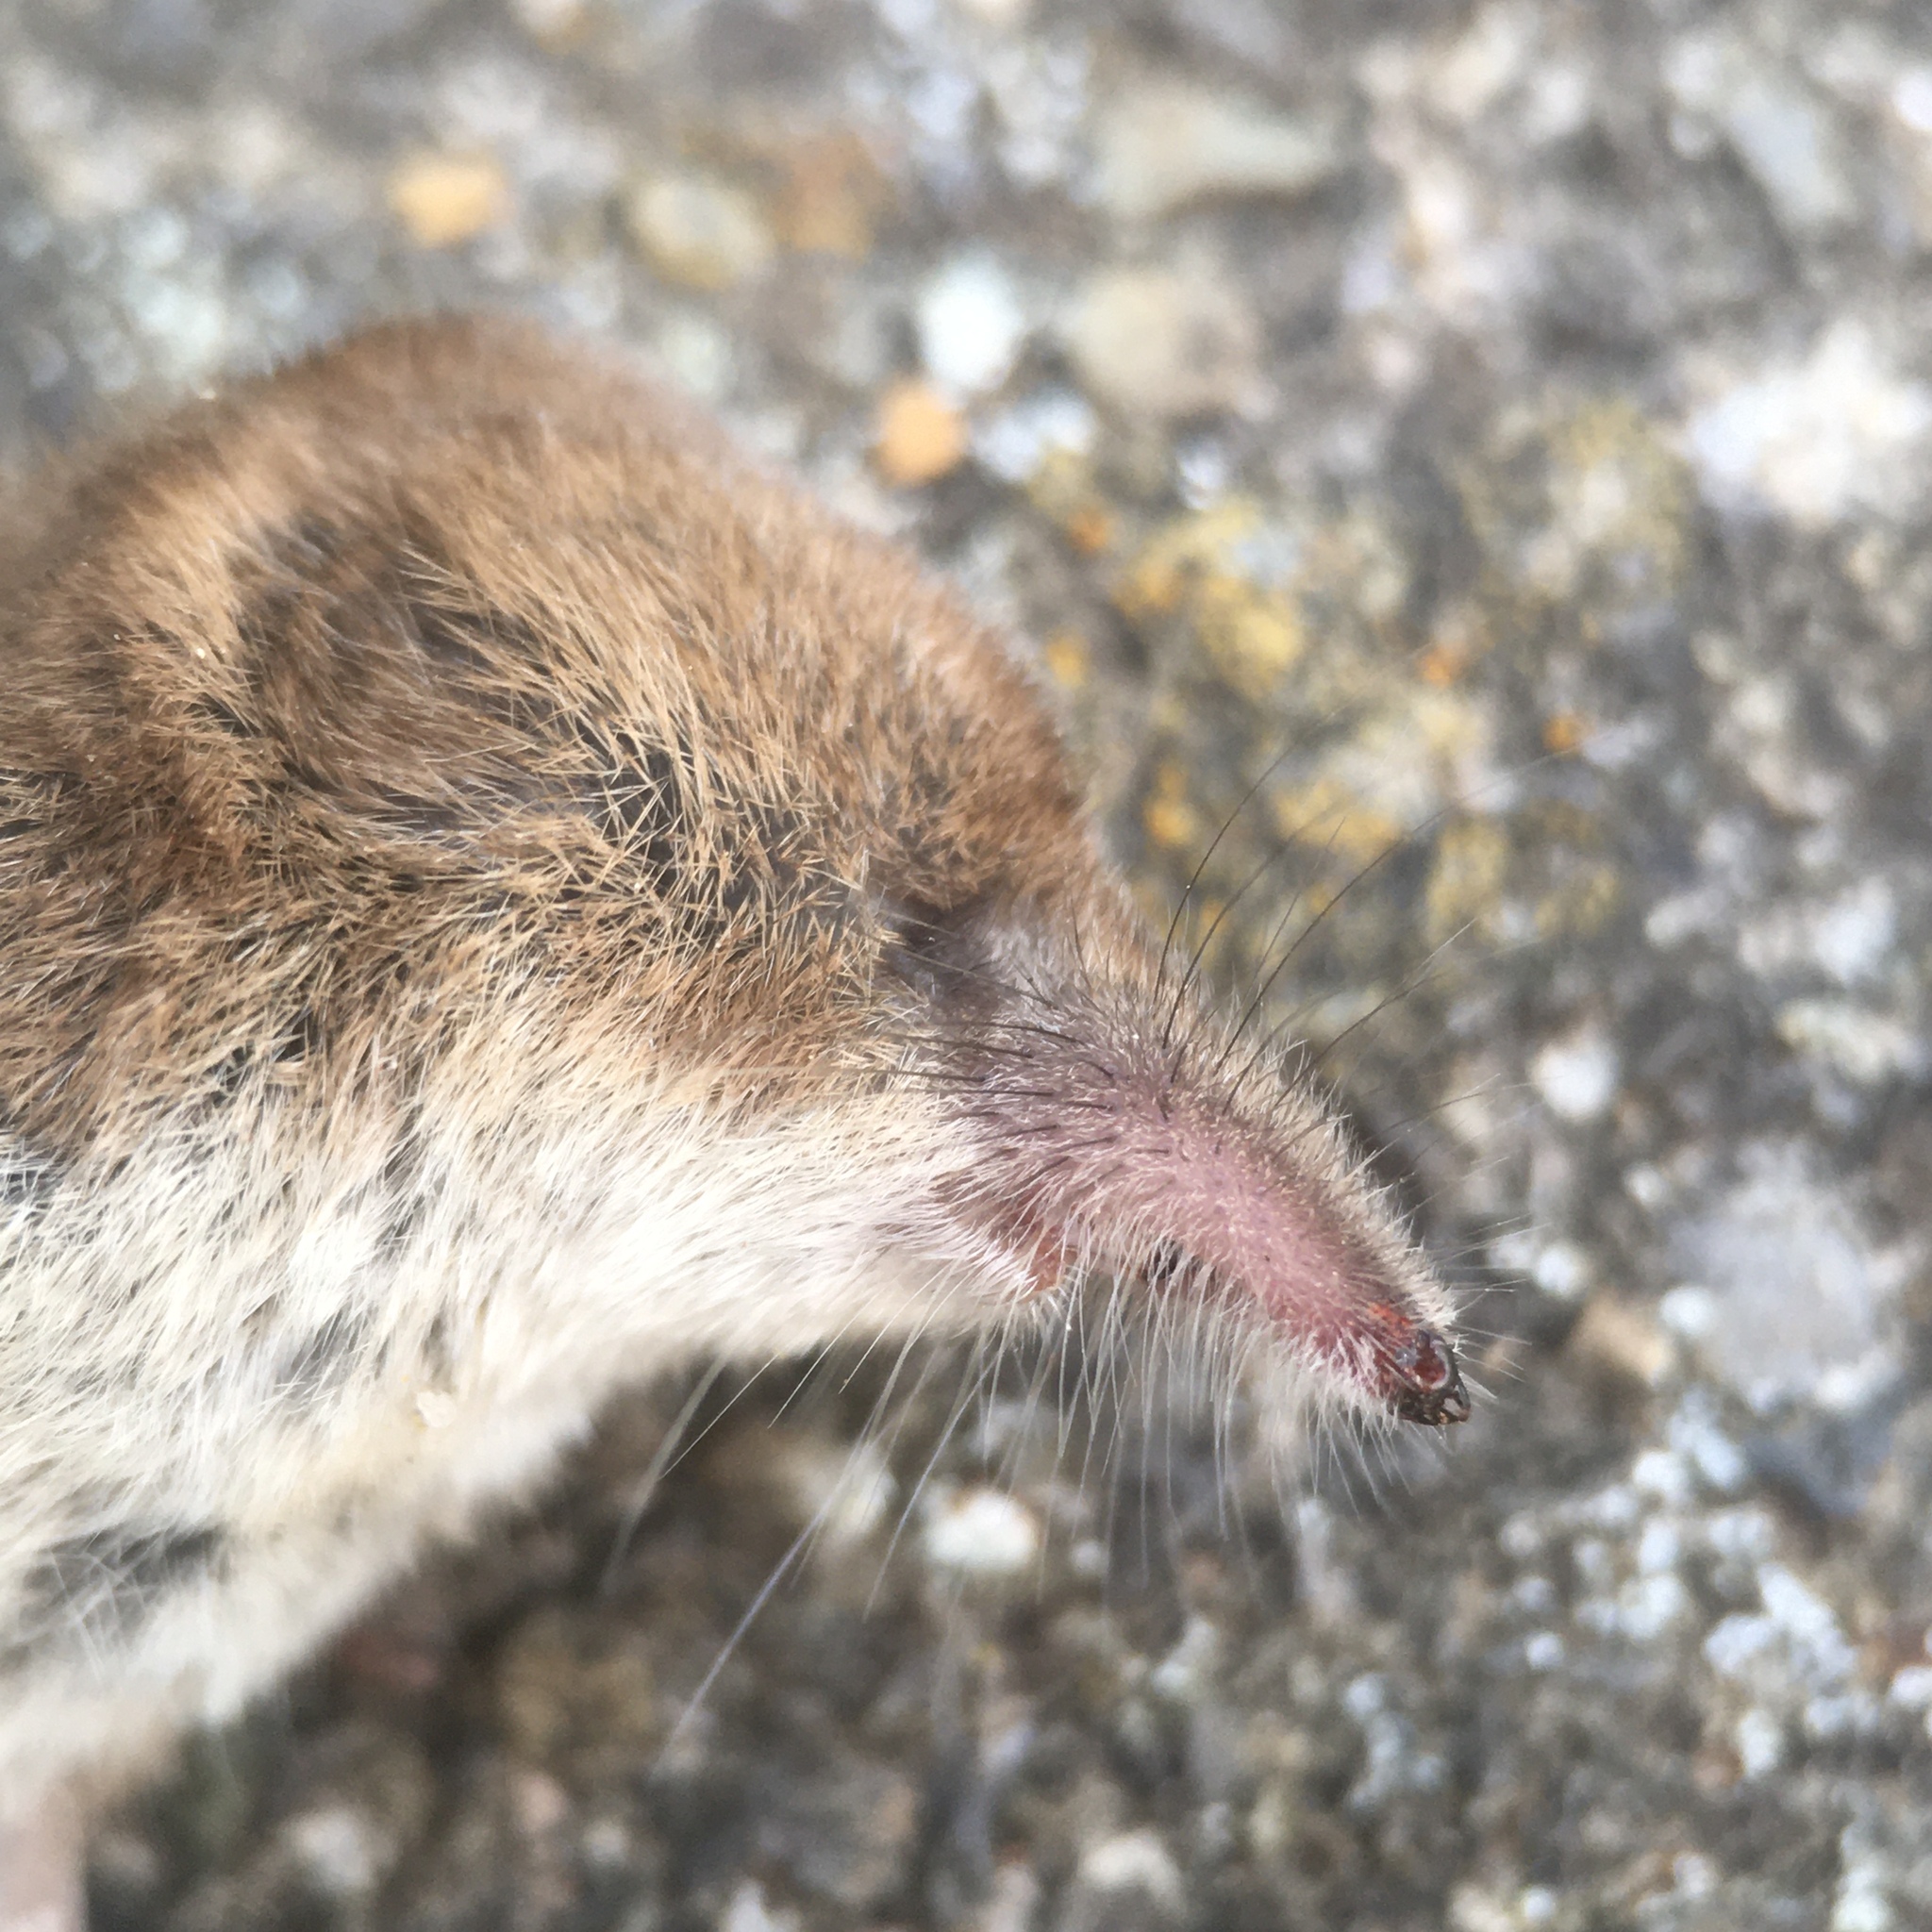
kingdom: Animalia
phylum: Chordata
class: Mammalia
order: Soricomorpha
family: Soricidae
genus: Sorex
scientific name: Sorex minutus
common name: Eurasian pygmy shrew
